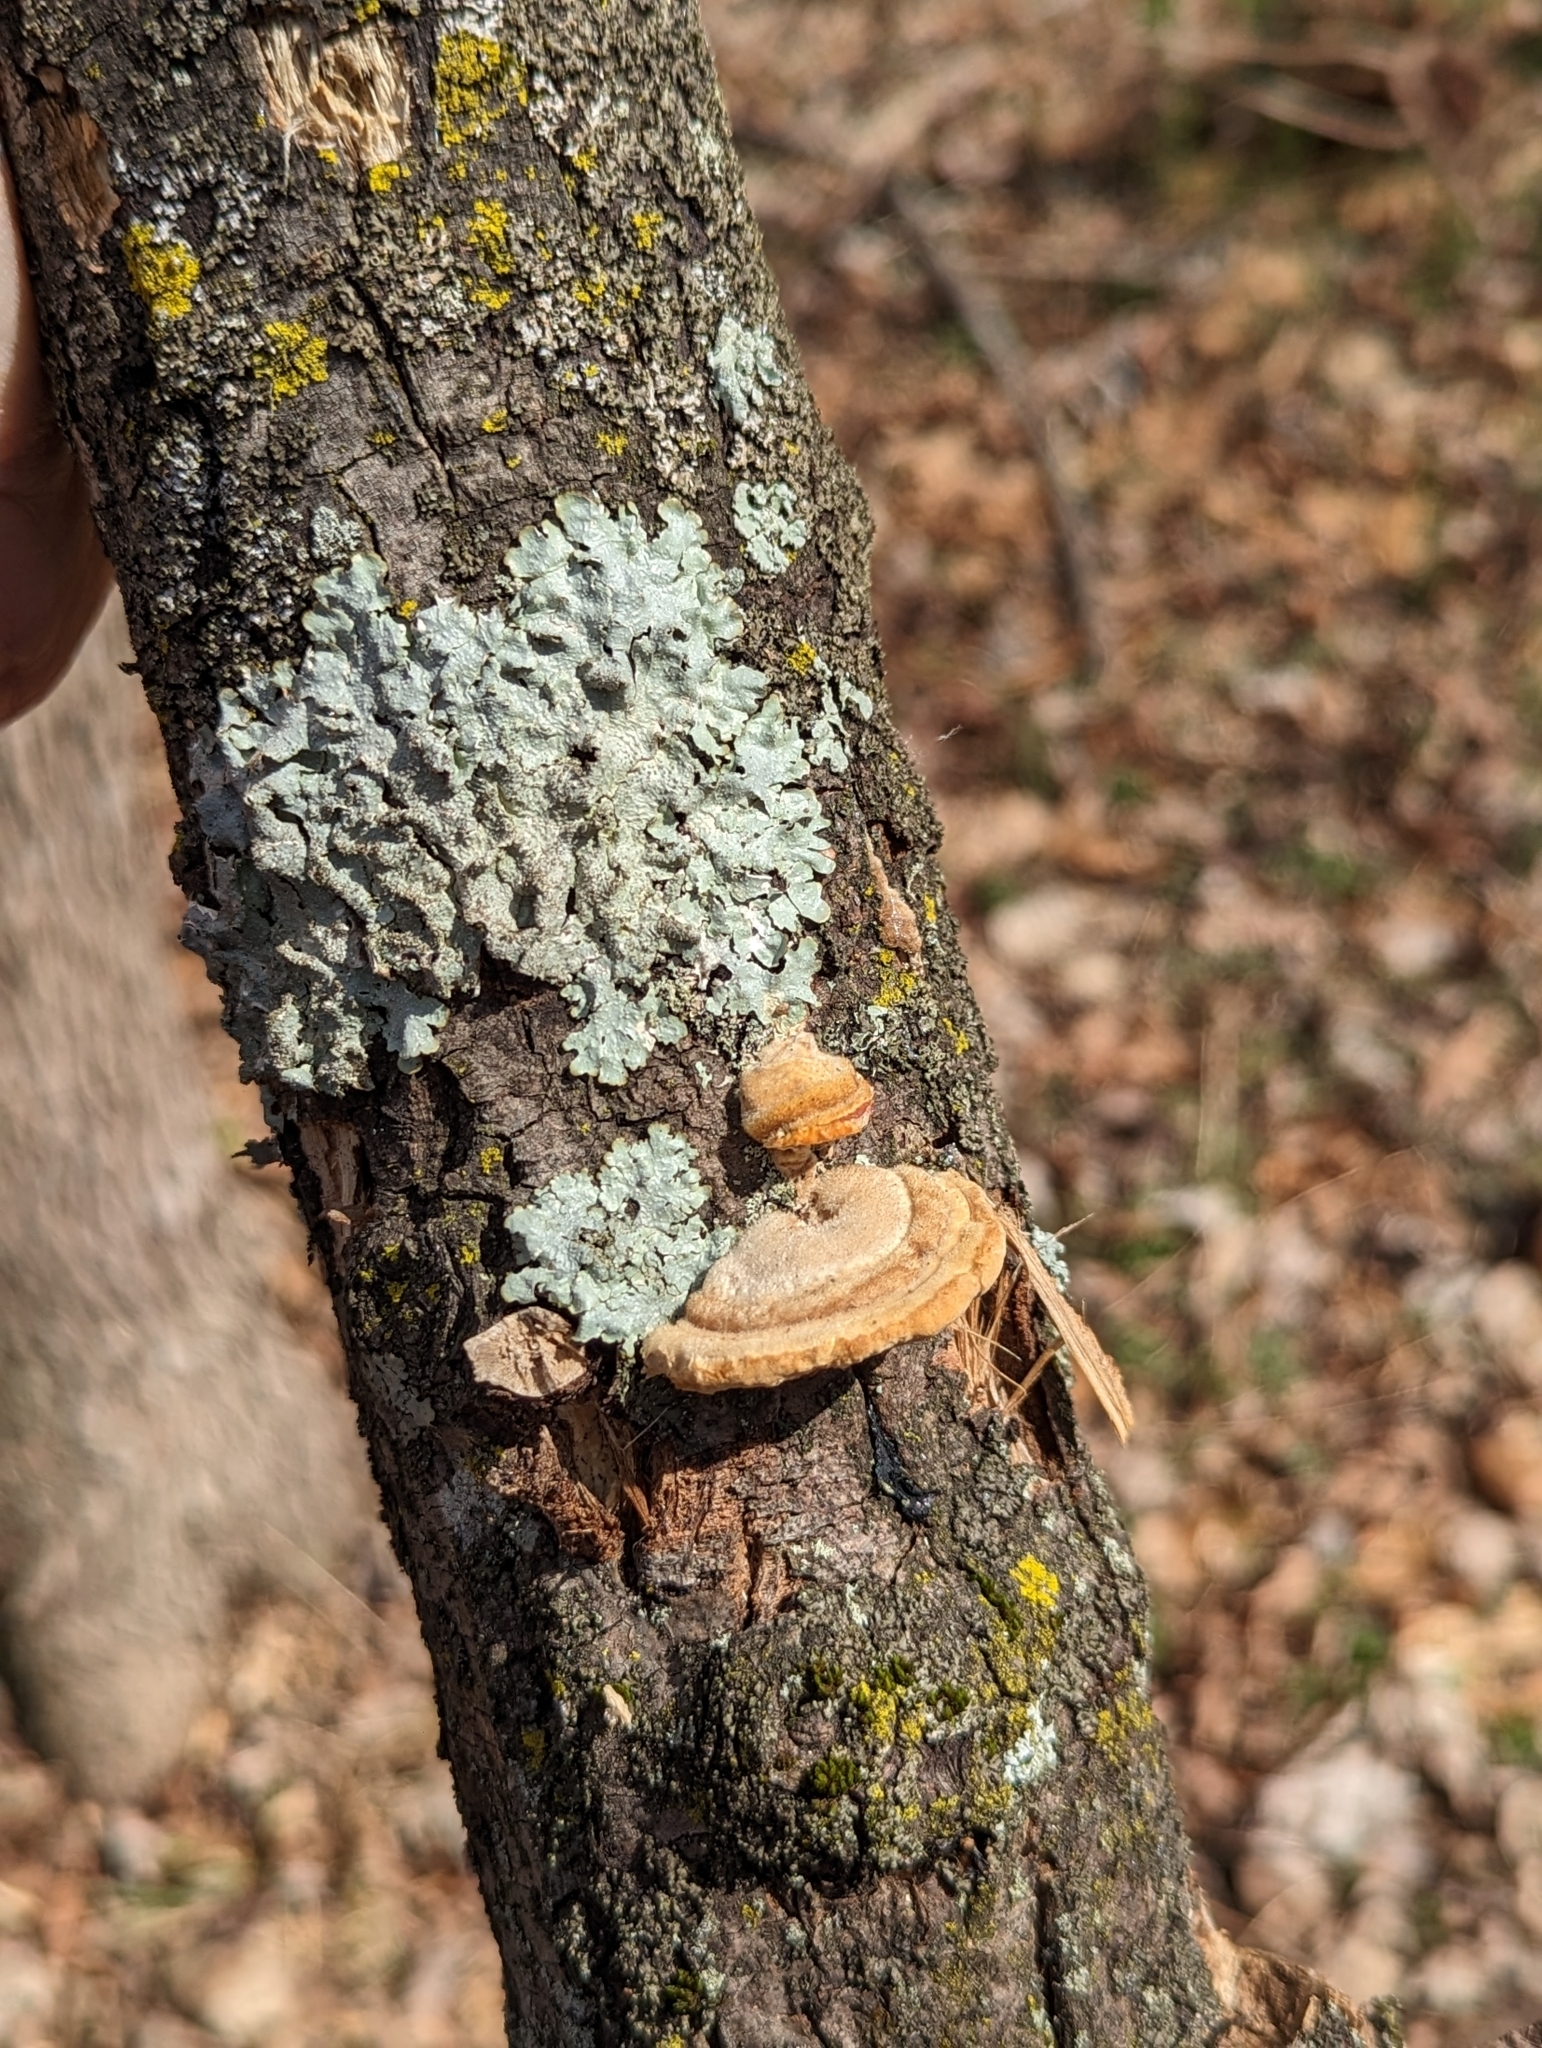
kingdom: Fungi
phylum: Basidiomycota
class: Agaricomycetes
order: Polyporales
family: Polyporaceae
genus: Trametes
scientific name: Trametes hirsuta
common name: Hairy bracket
